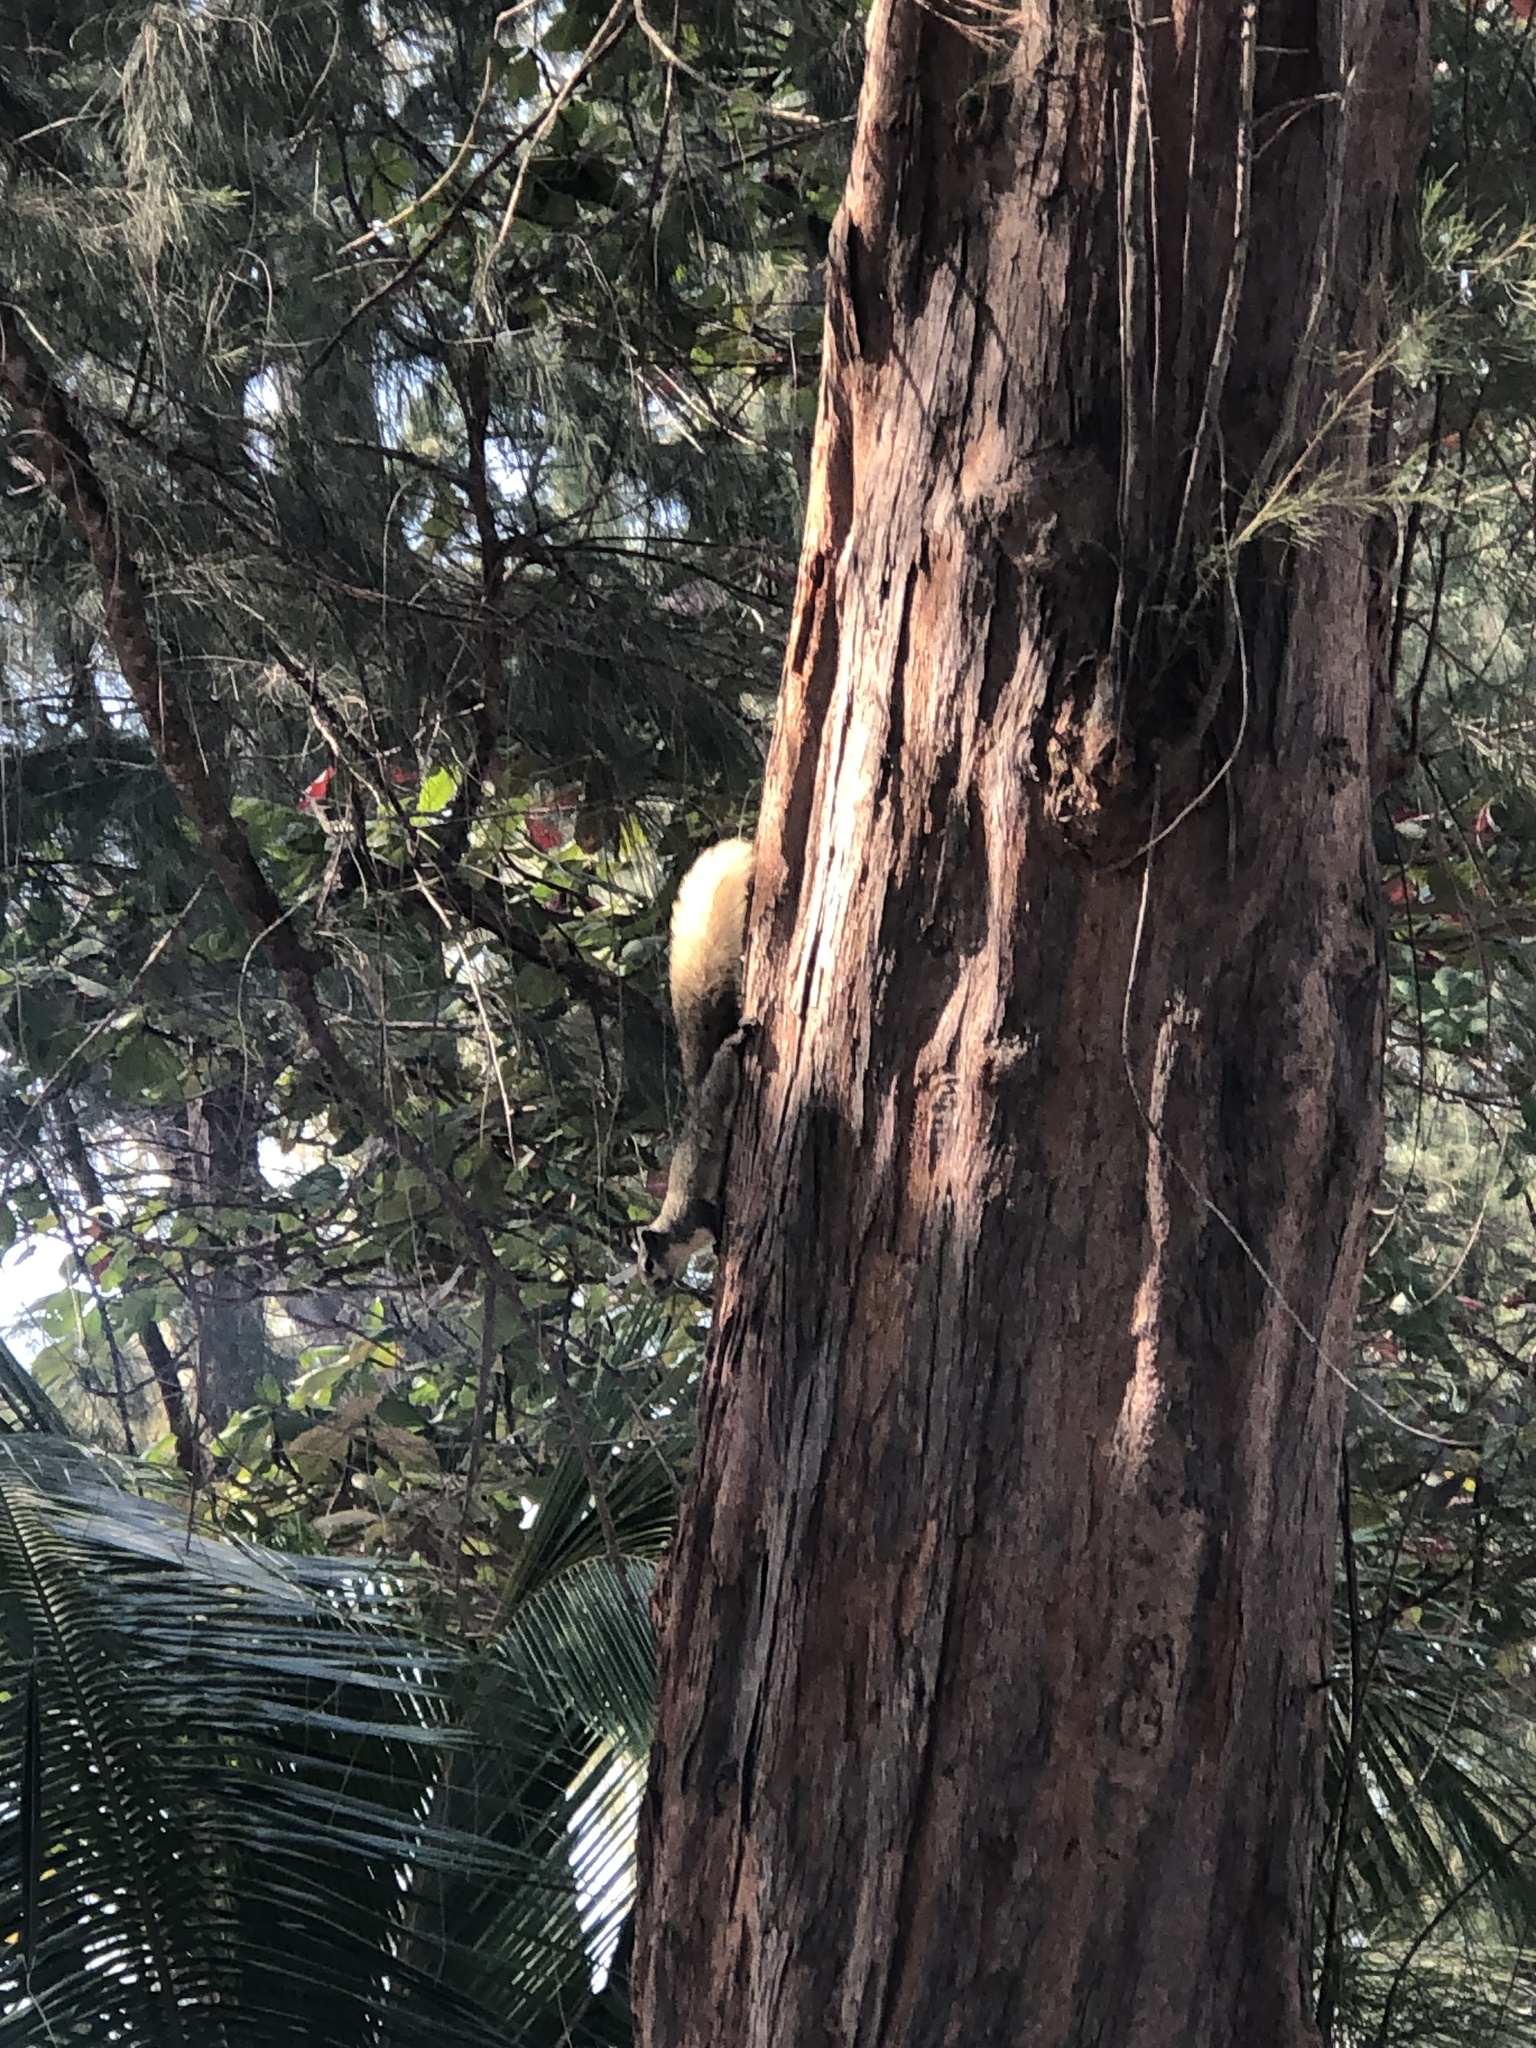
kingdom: Animalia
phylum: Chordata
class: Mammalia
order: Rodentia
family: Sciuridae
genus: Callosciurus
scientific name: Callosciurus finlaysonii
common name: Finlayson's squirrel
